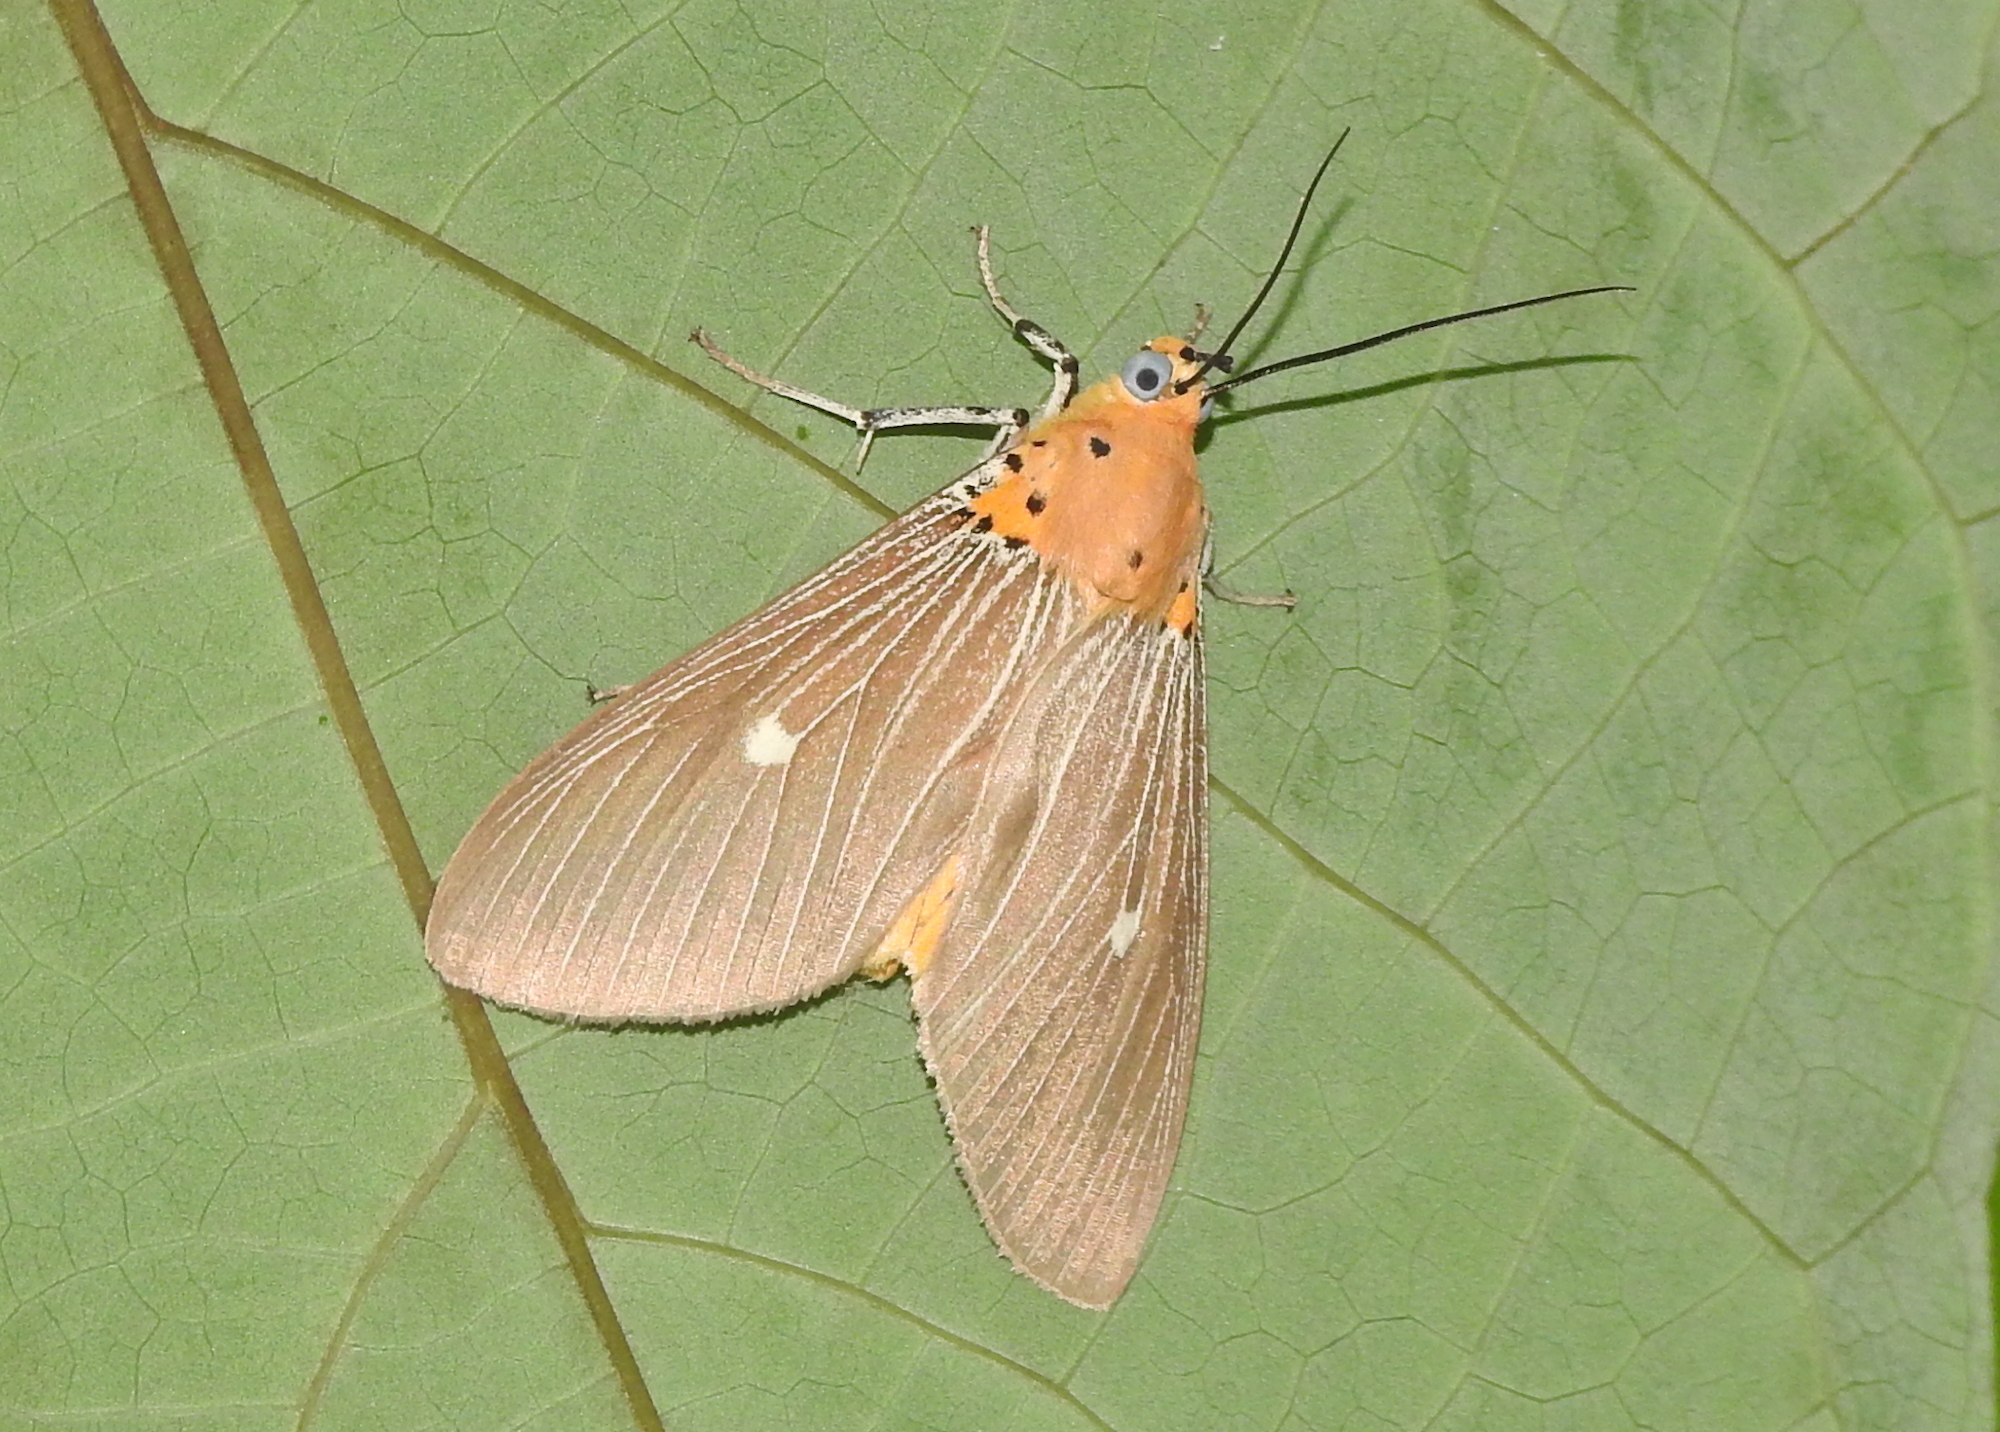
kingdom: Animalia
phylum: Arthropoda
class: Insecta
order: Lepidoptera
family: Erebidae
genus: Asota
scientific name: Asota caricae
